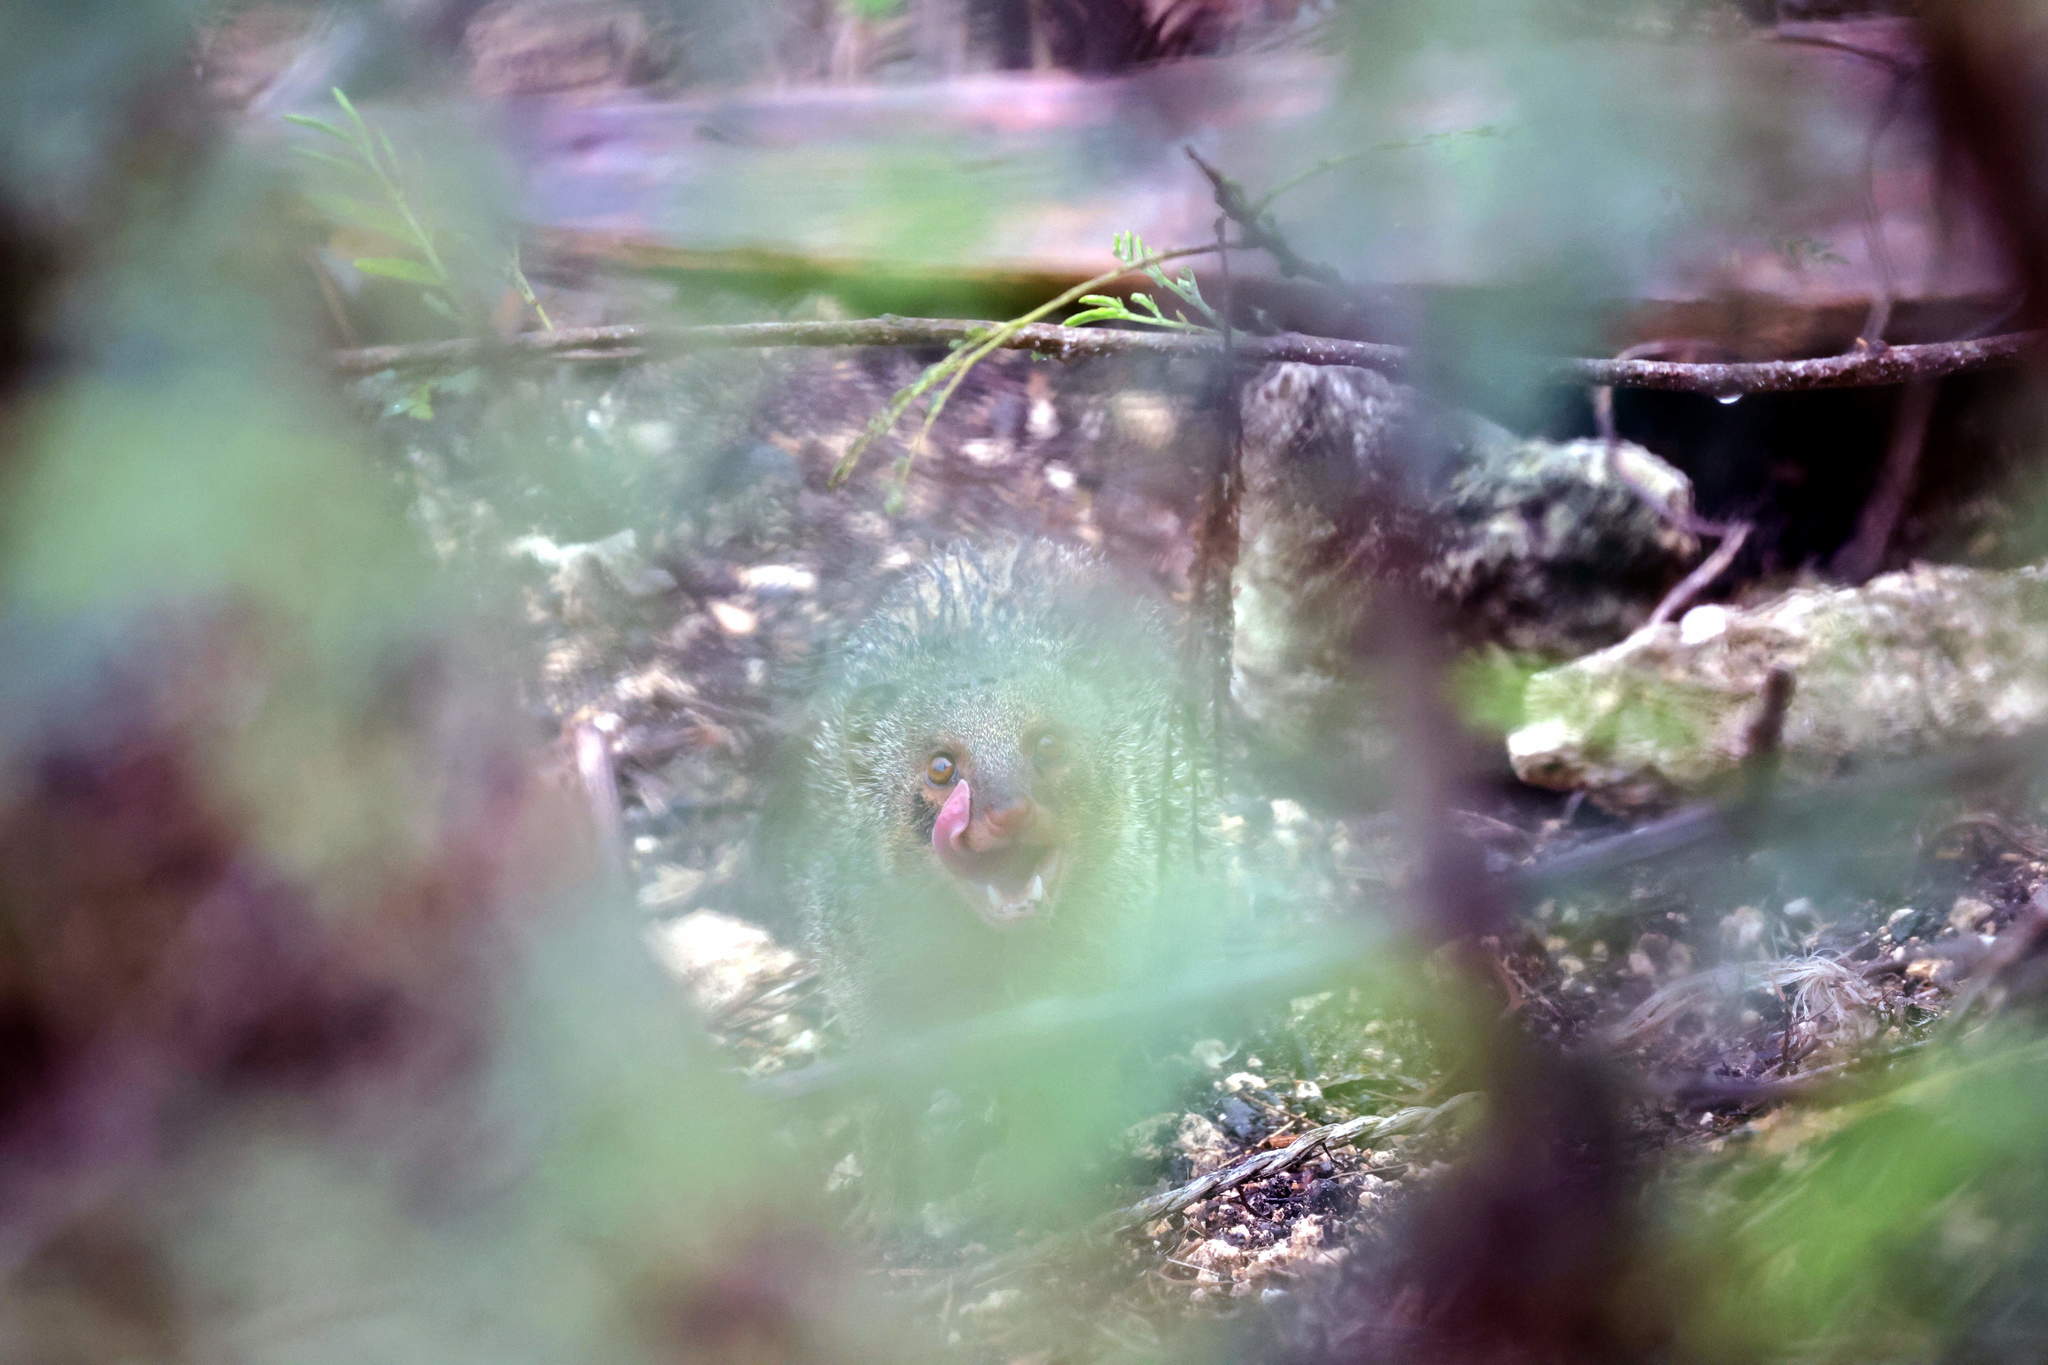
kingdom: Animalia
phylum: Chordata
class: Mammalia
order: Carnivora
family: Herpestidae
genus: Herpestes
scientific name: Herpestes javanicus
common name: Small asian mongoose
